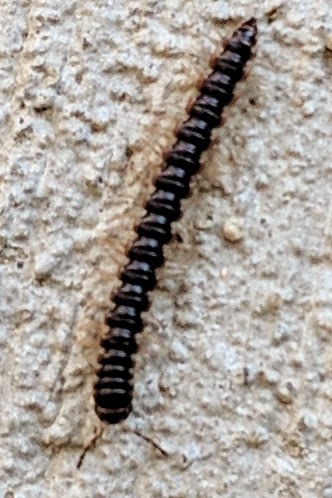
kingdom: Animalia
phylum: Arthropoda
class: Diplopoda
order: Polydesmida
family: Paradoxosomatidae
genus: Oxidus
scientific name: Oxidus gracilis
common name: Greenhouse millipede
